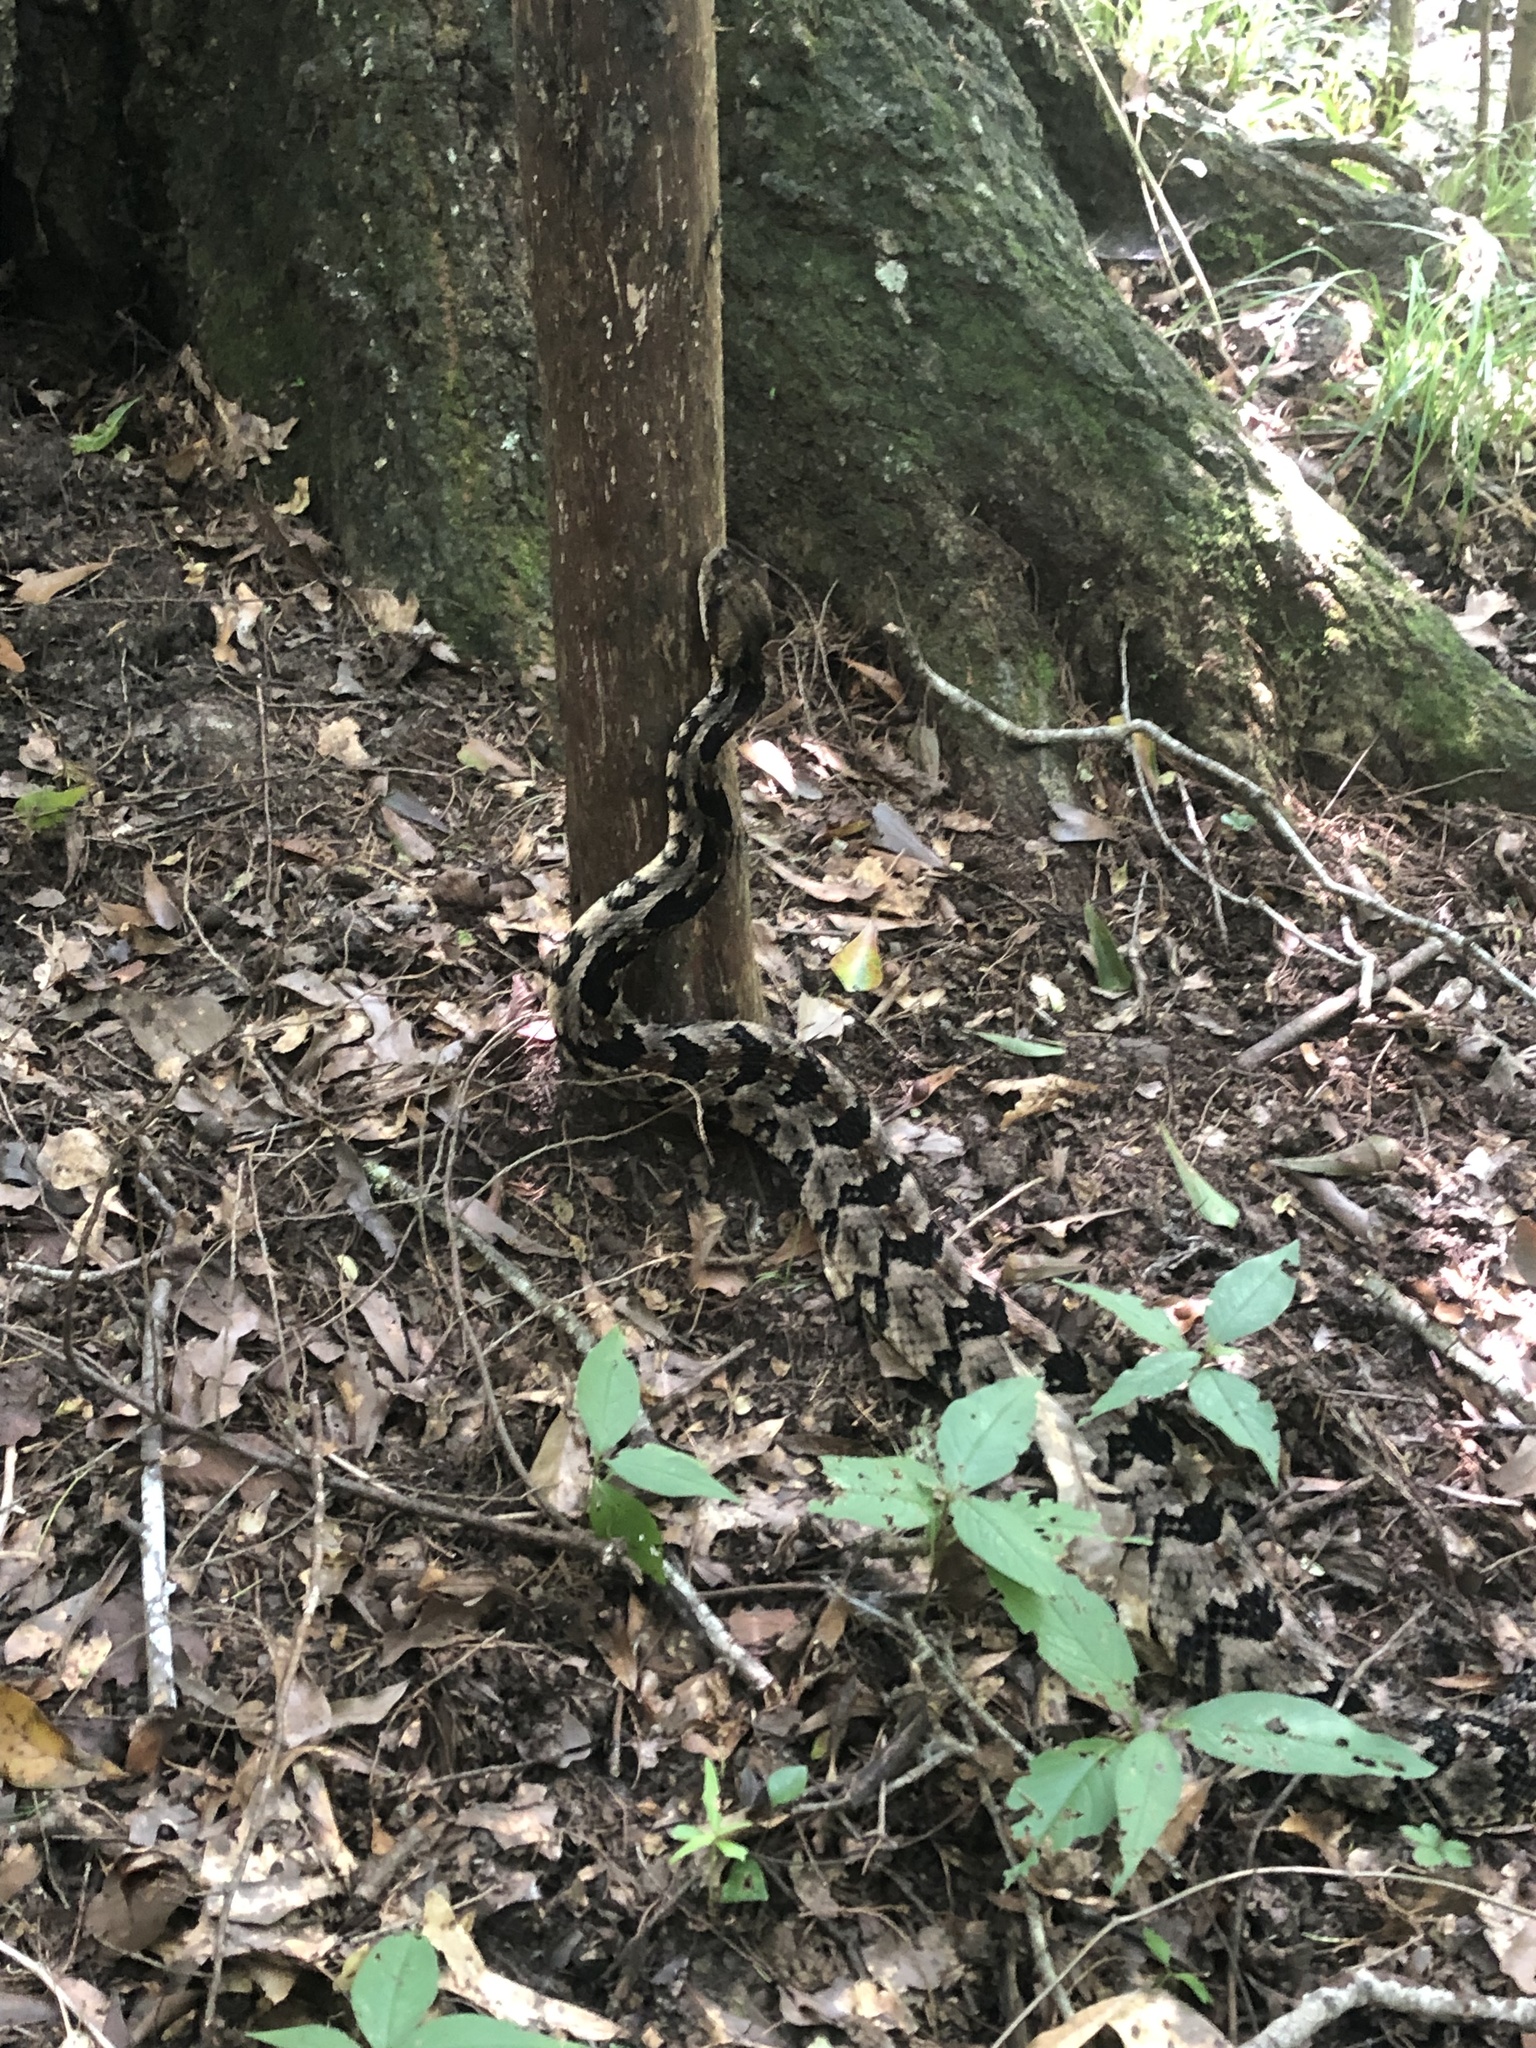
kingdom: Animalia
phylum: Chordata
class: Squamata
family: Viperidae
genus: Crotalus
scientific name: Crotalus horridus
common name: Timber rattlesnake
